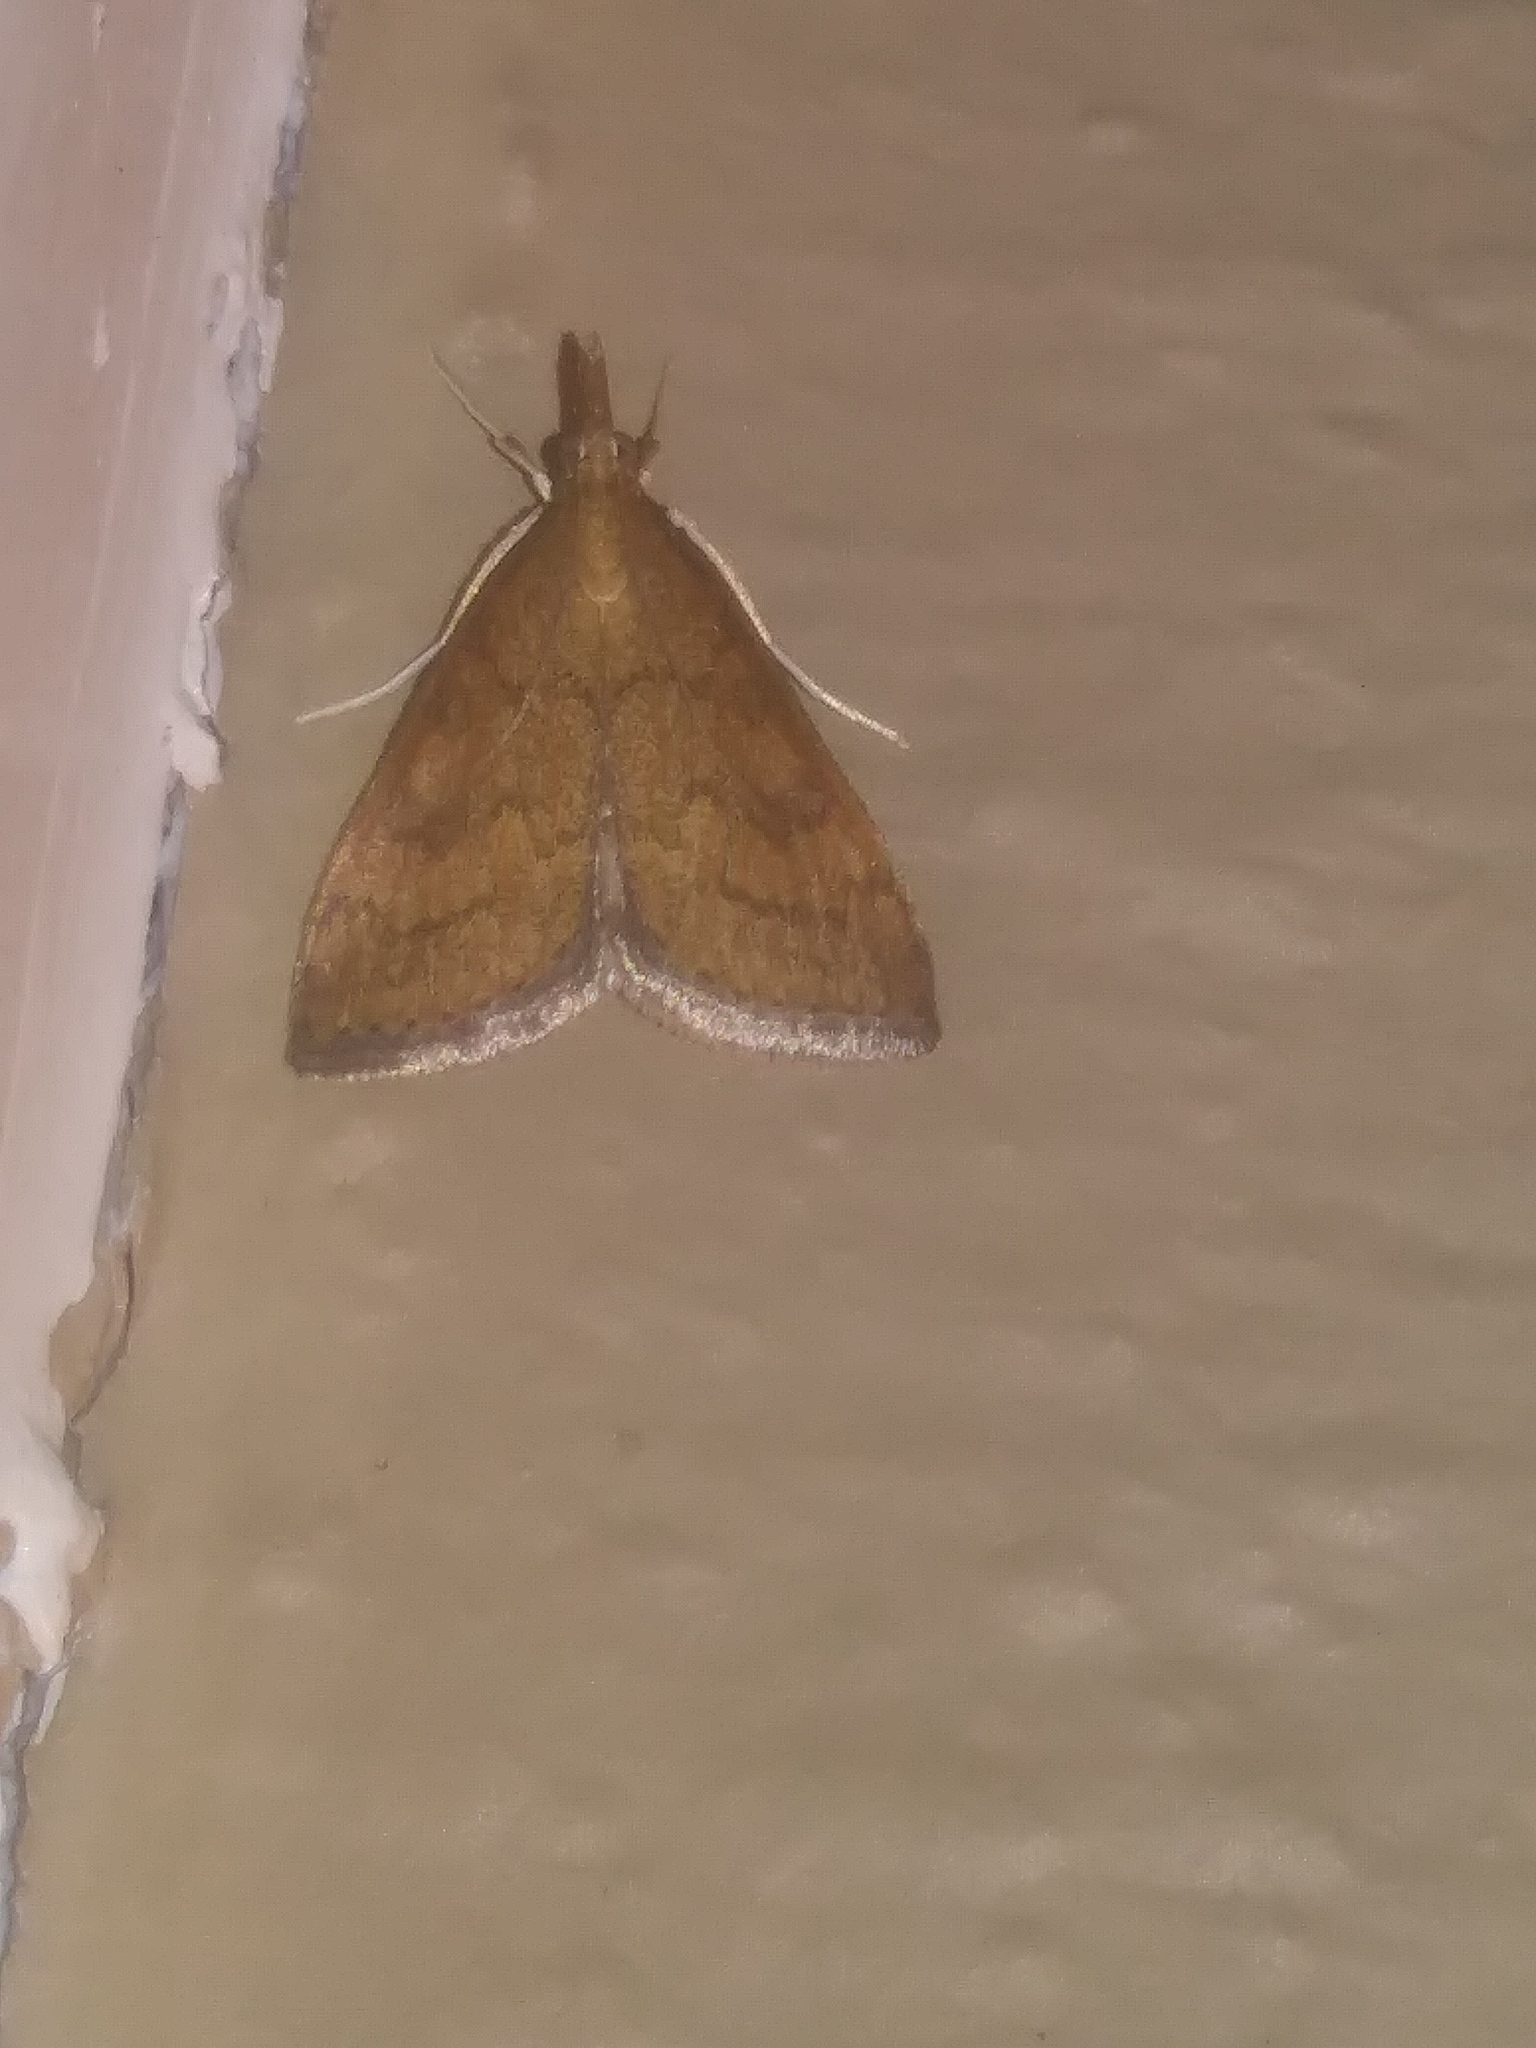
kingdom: Animalia
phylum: Arthropoda
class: Insecta
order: Lepidoptera
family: Crambidae
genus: Udea
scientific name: Udea rubigalis
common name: Celery leaftier moth
